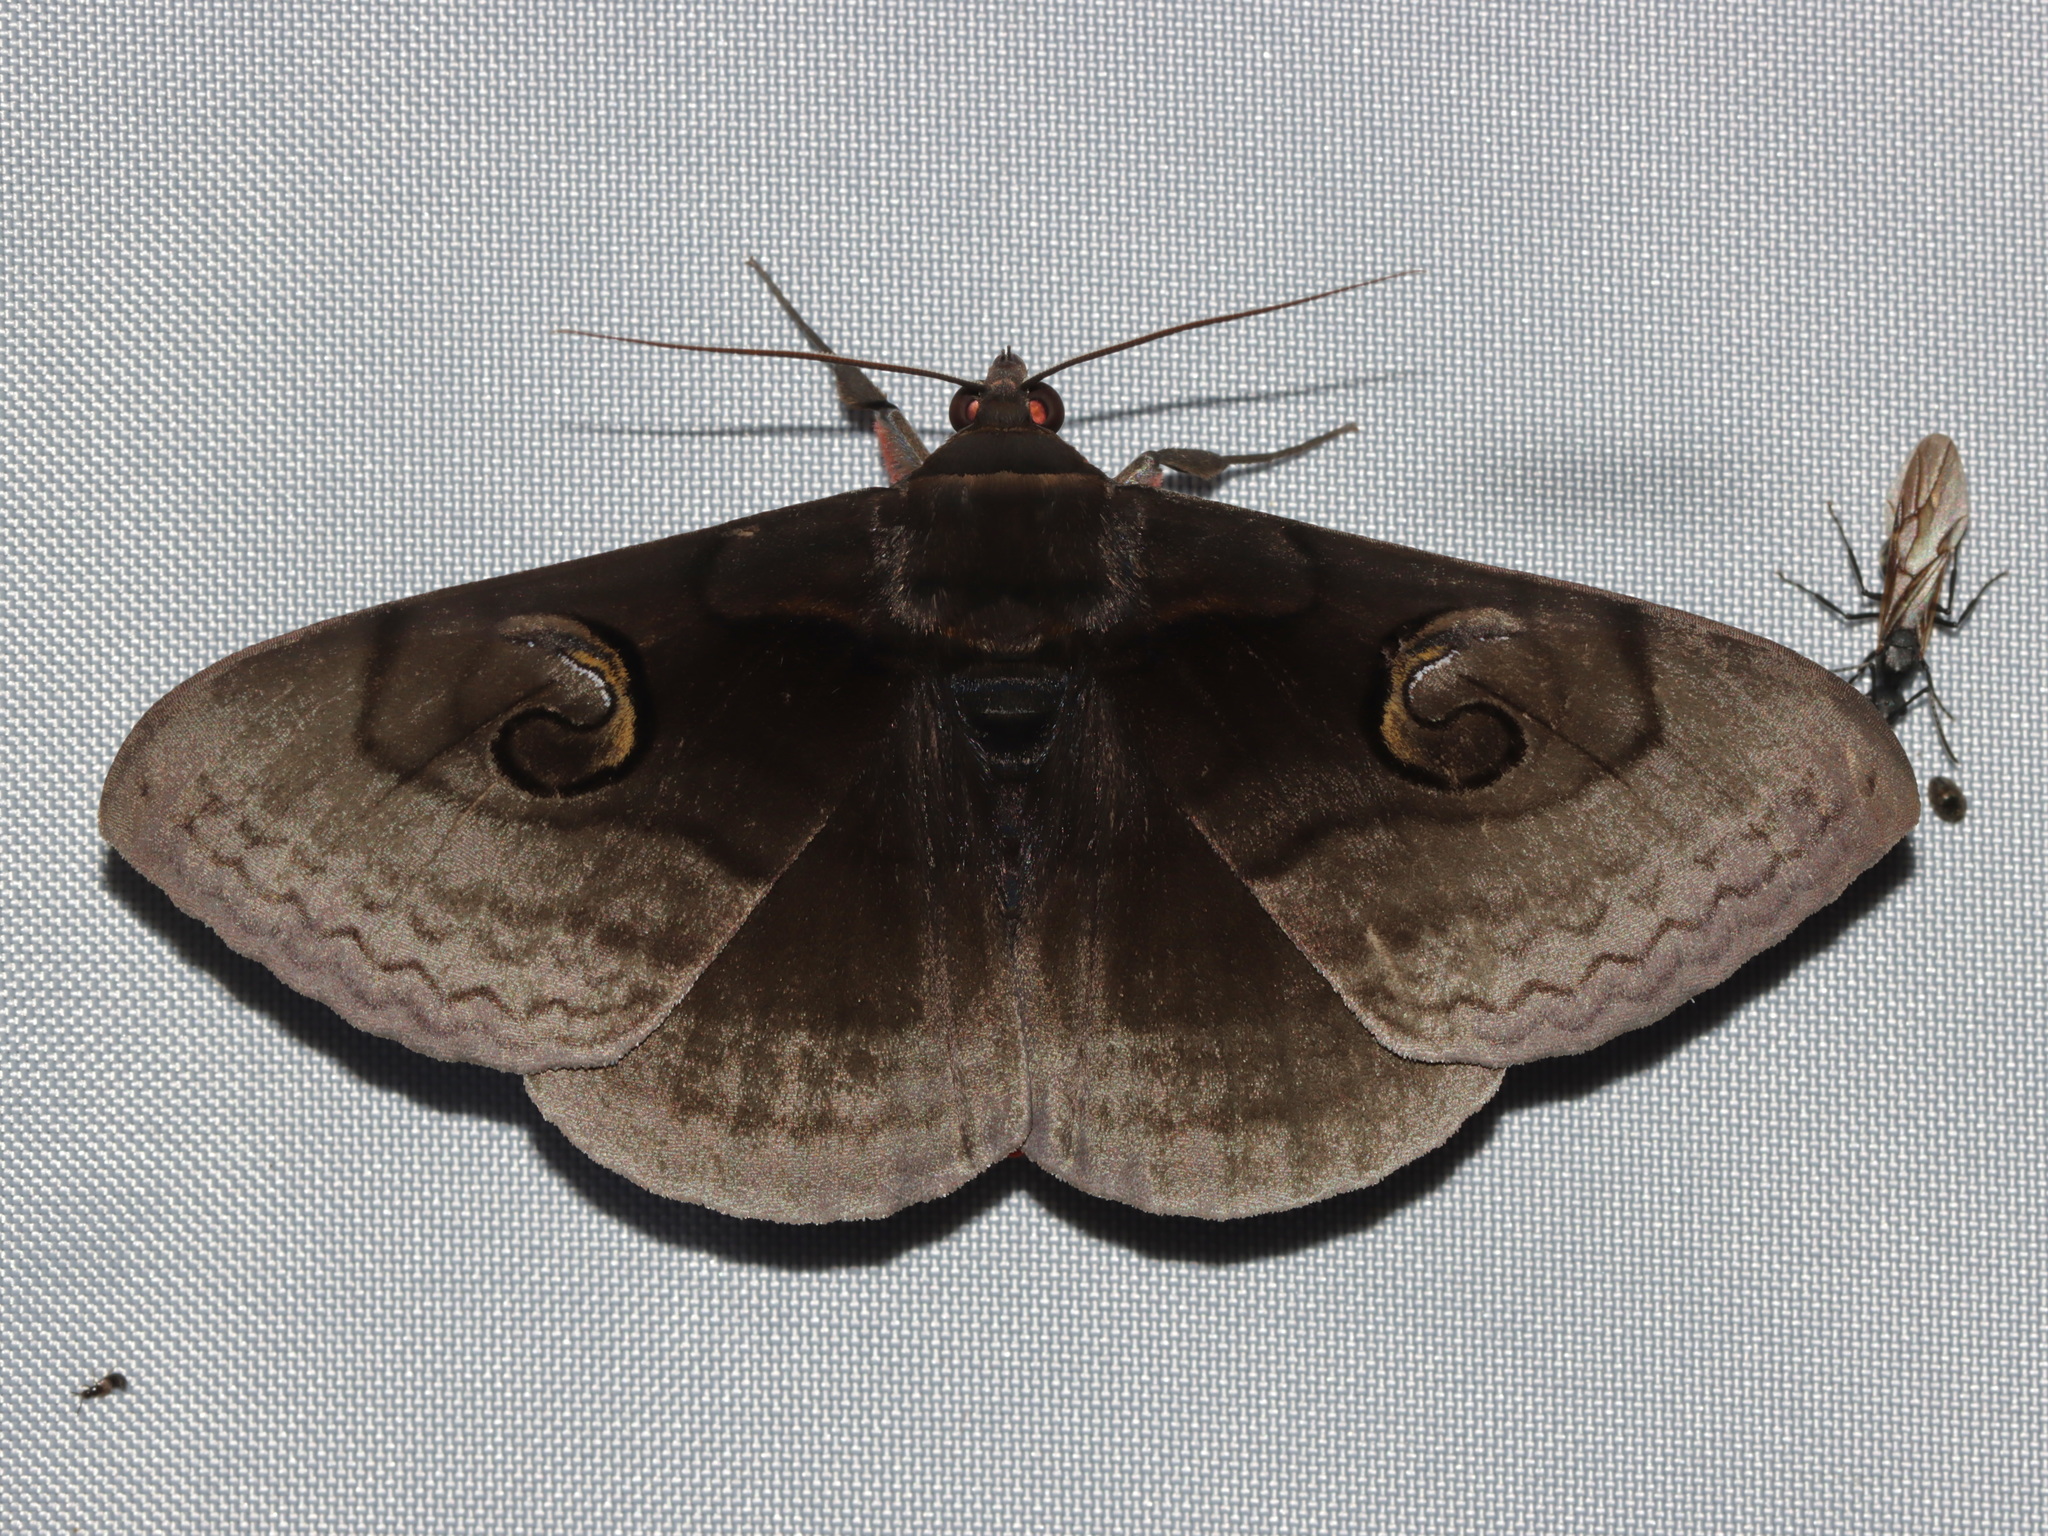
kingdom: Animalia
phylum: Arthropoda
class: Insecta
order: Lepidoptera
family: Erebidae
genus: Spirama
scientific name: Spirama retorta
